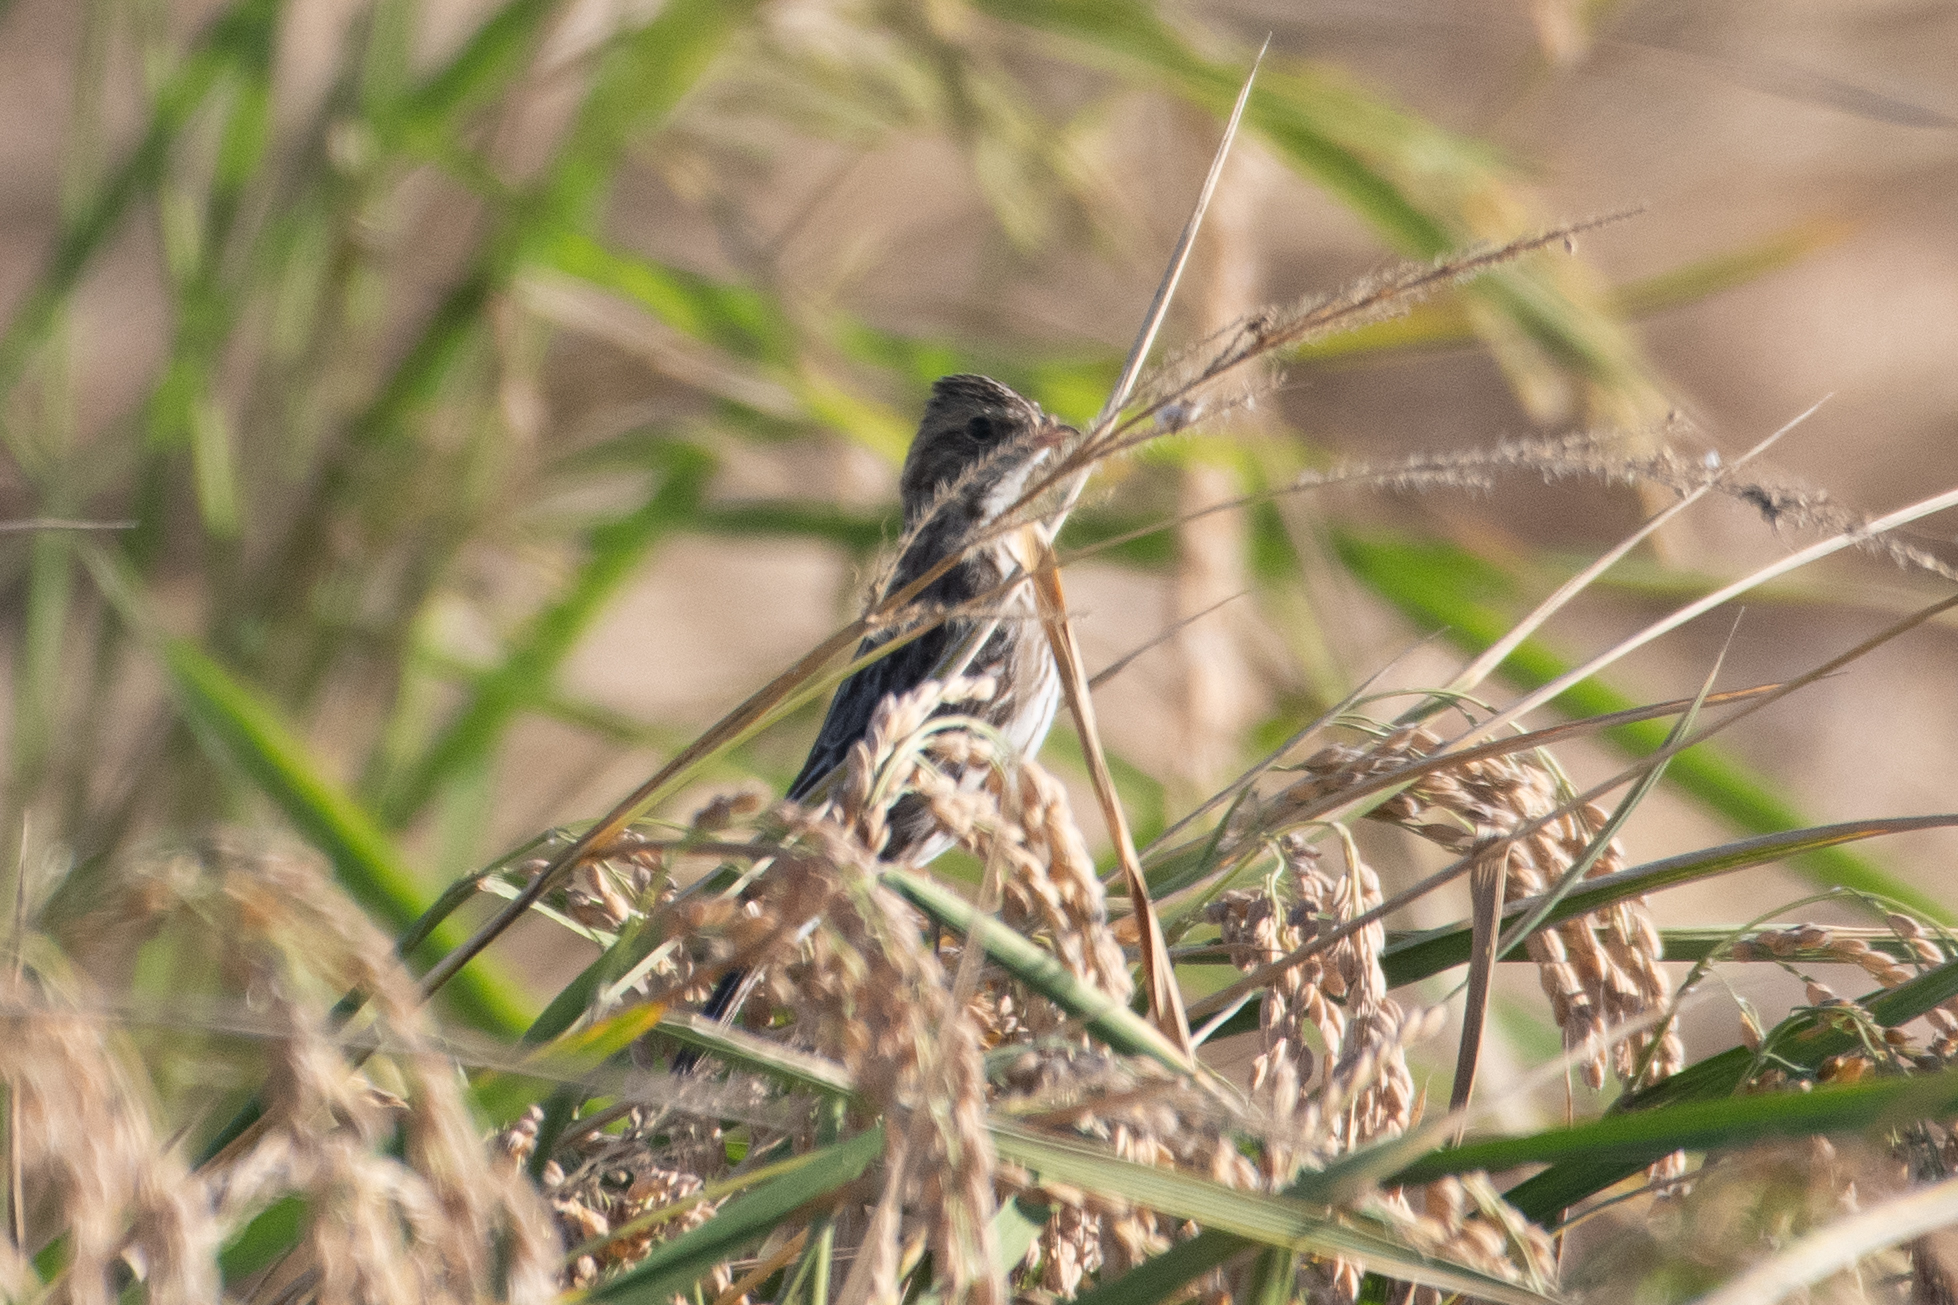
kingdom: Animalia
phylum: Chordata
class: Aves
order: Passeriformes
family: Passerellidae
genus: Passerculus
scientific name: Passerculus sandwichensis
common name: Savannah sparrow
